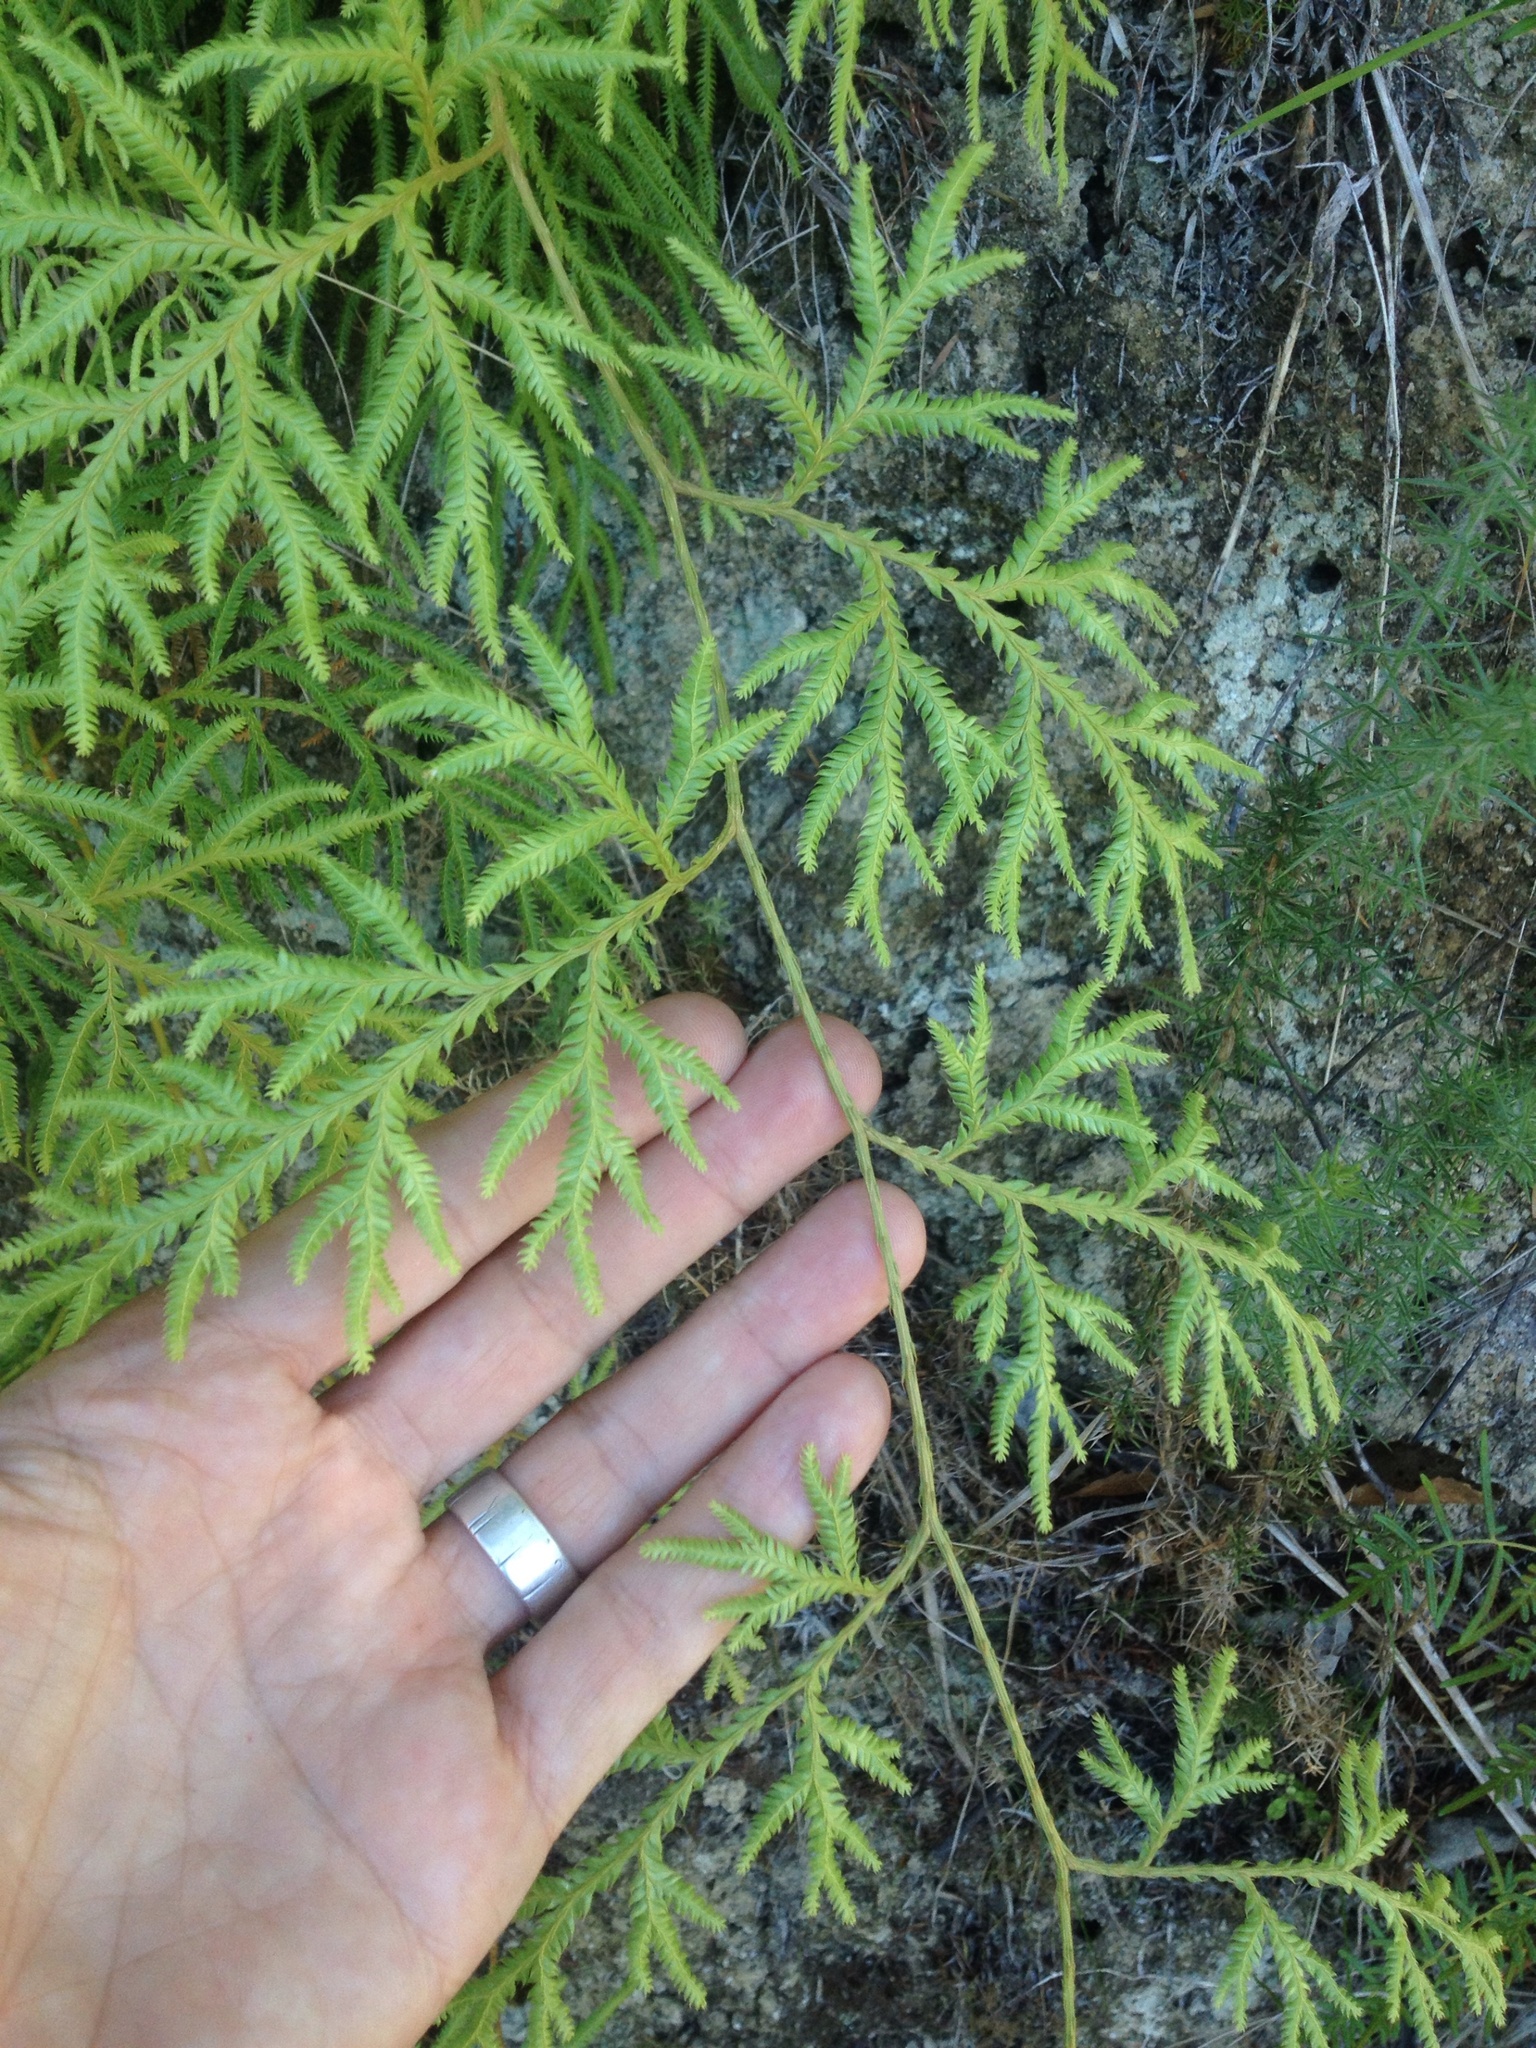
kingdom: Plantae
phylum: Tracheophyta
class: Lycopodiopsida
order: Lycopodiales
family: Lycopodiaceae
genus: Lycopodium
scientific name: Lycopodium volubile
